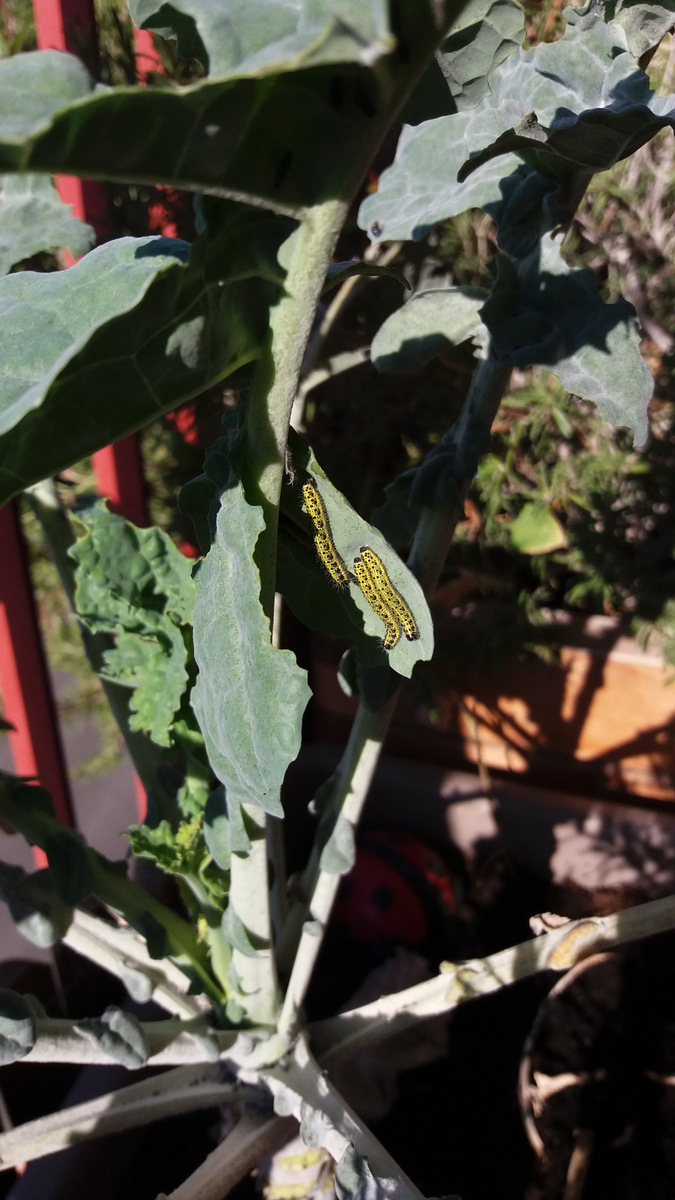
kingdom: Animalia
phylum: Arthropoda
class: Insecta
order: Lepidoptera
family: Pieridae
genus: Pieris
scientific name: Pieris brassicae
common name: Large white
